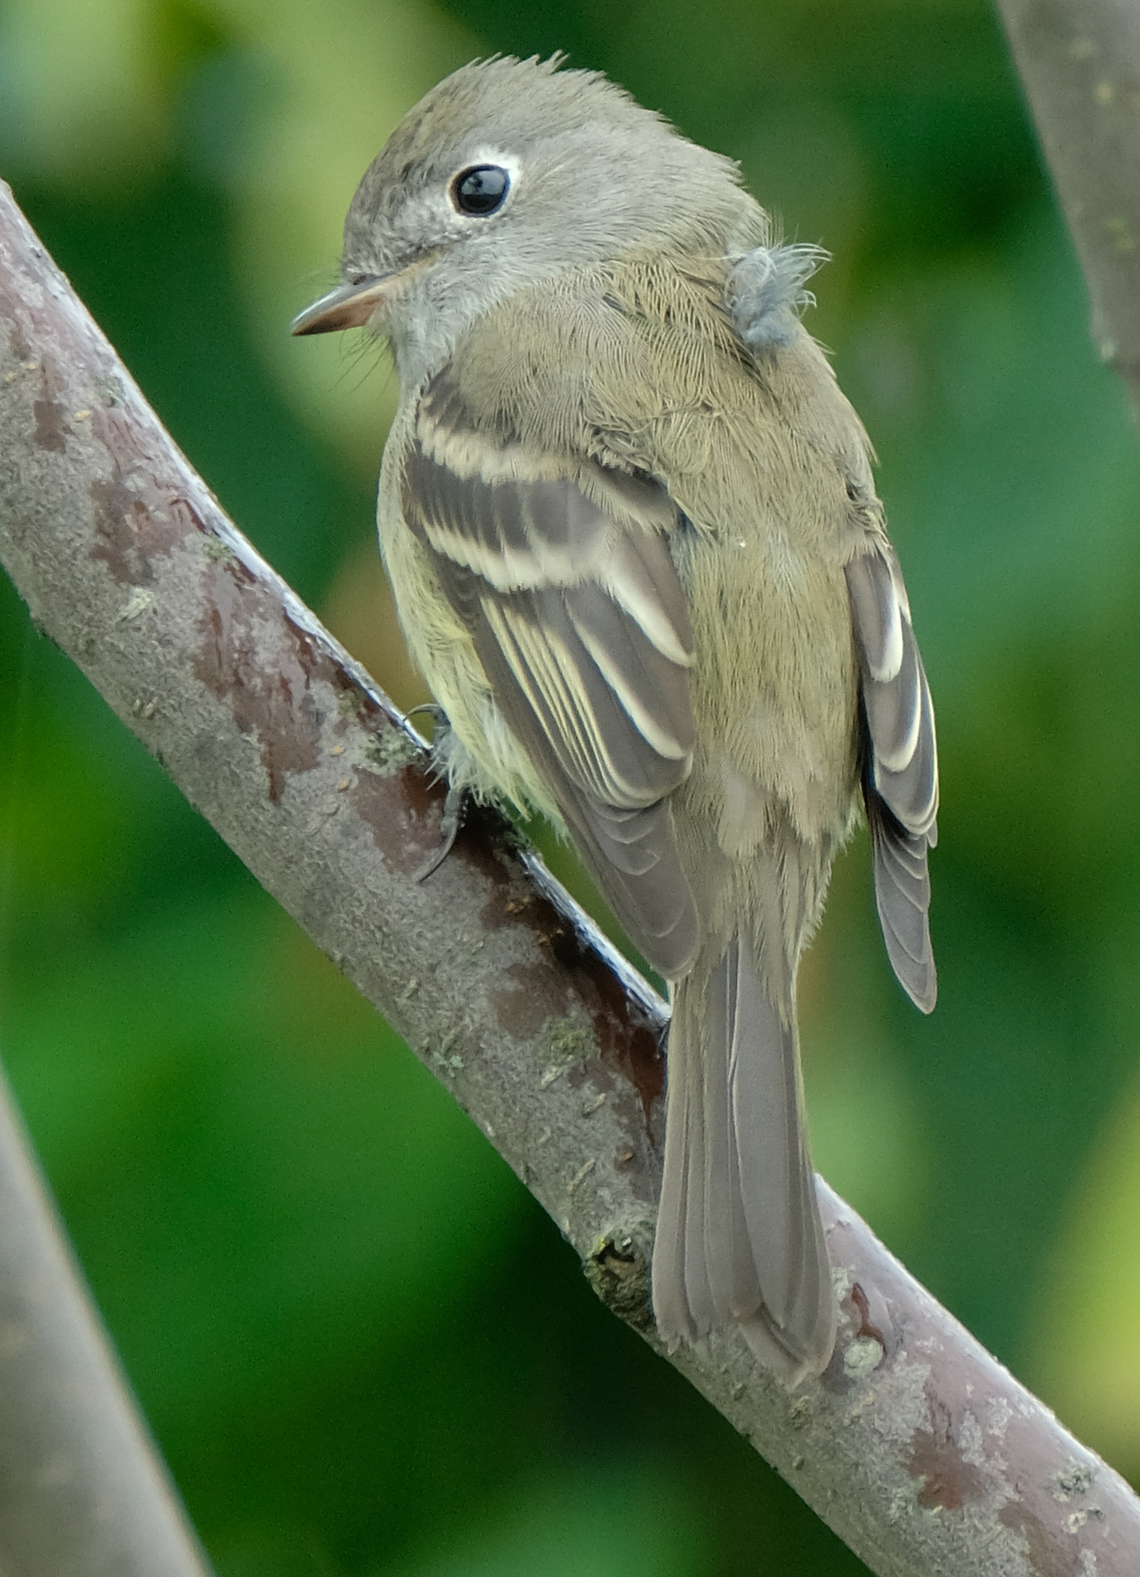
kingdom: Animalia
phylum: Chordata
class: Aves
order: Passeriformes
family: Tyrannidae
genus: Empidonax
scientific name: Empidonax hammondii
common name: Hammond's flycatcher
